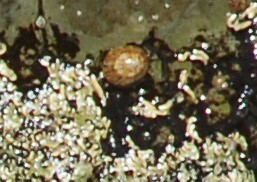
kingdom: Animalia
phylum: Mollusca
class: Gastropoda
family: Nacellidae
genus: Cellana
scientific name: Cellana tramoserica
